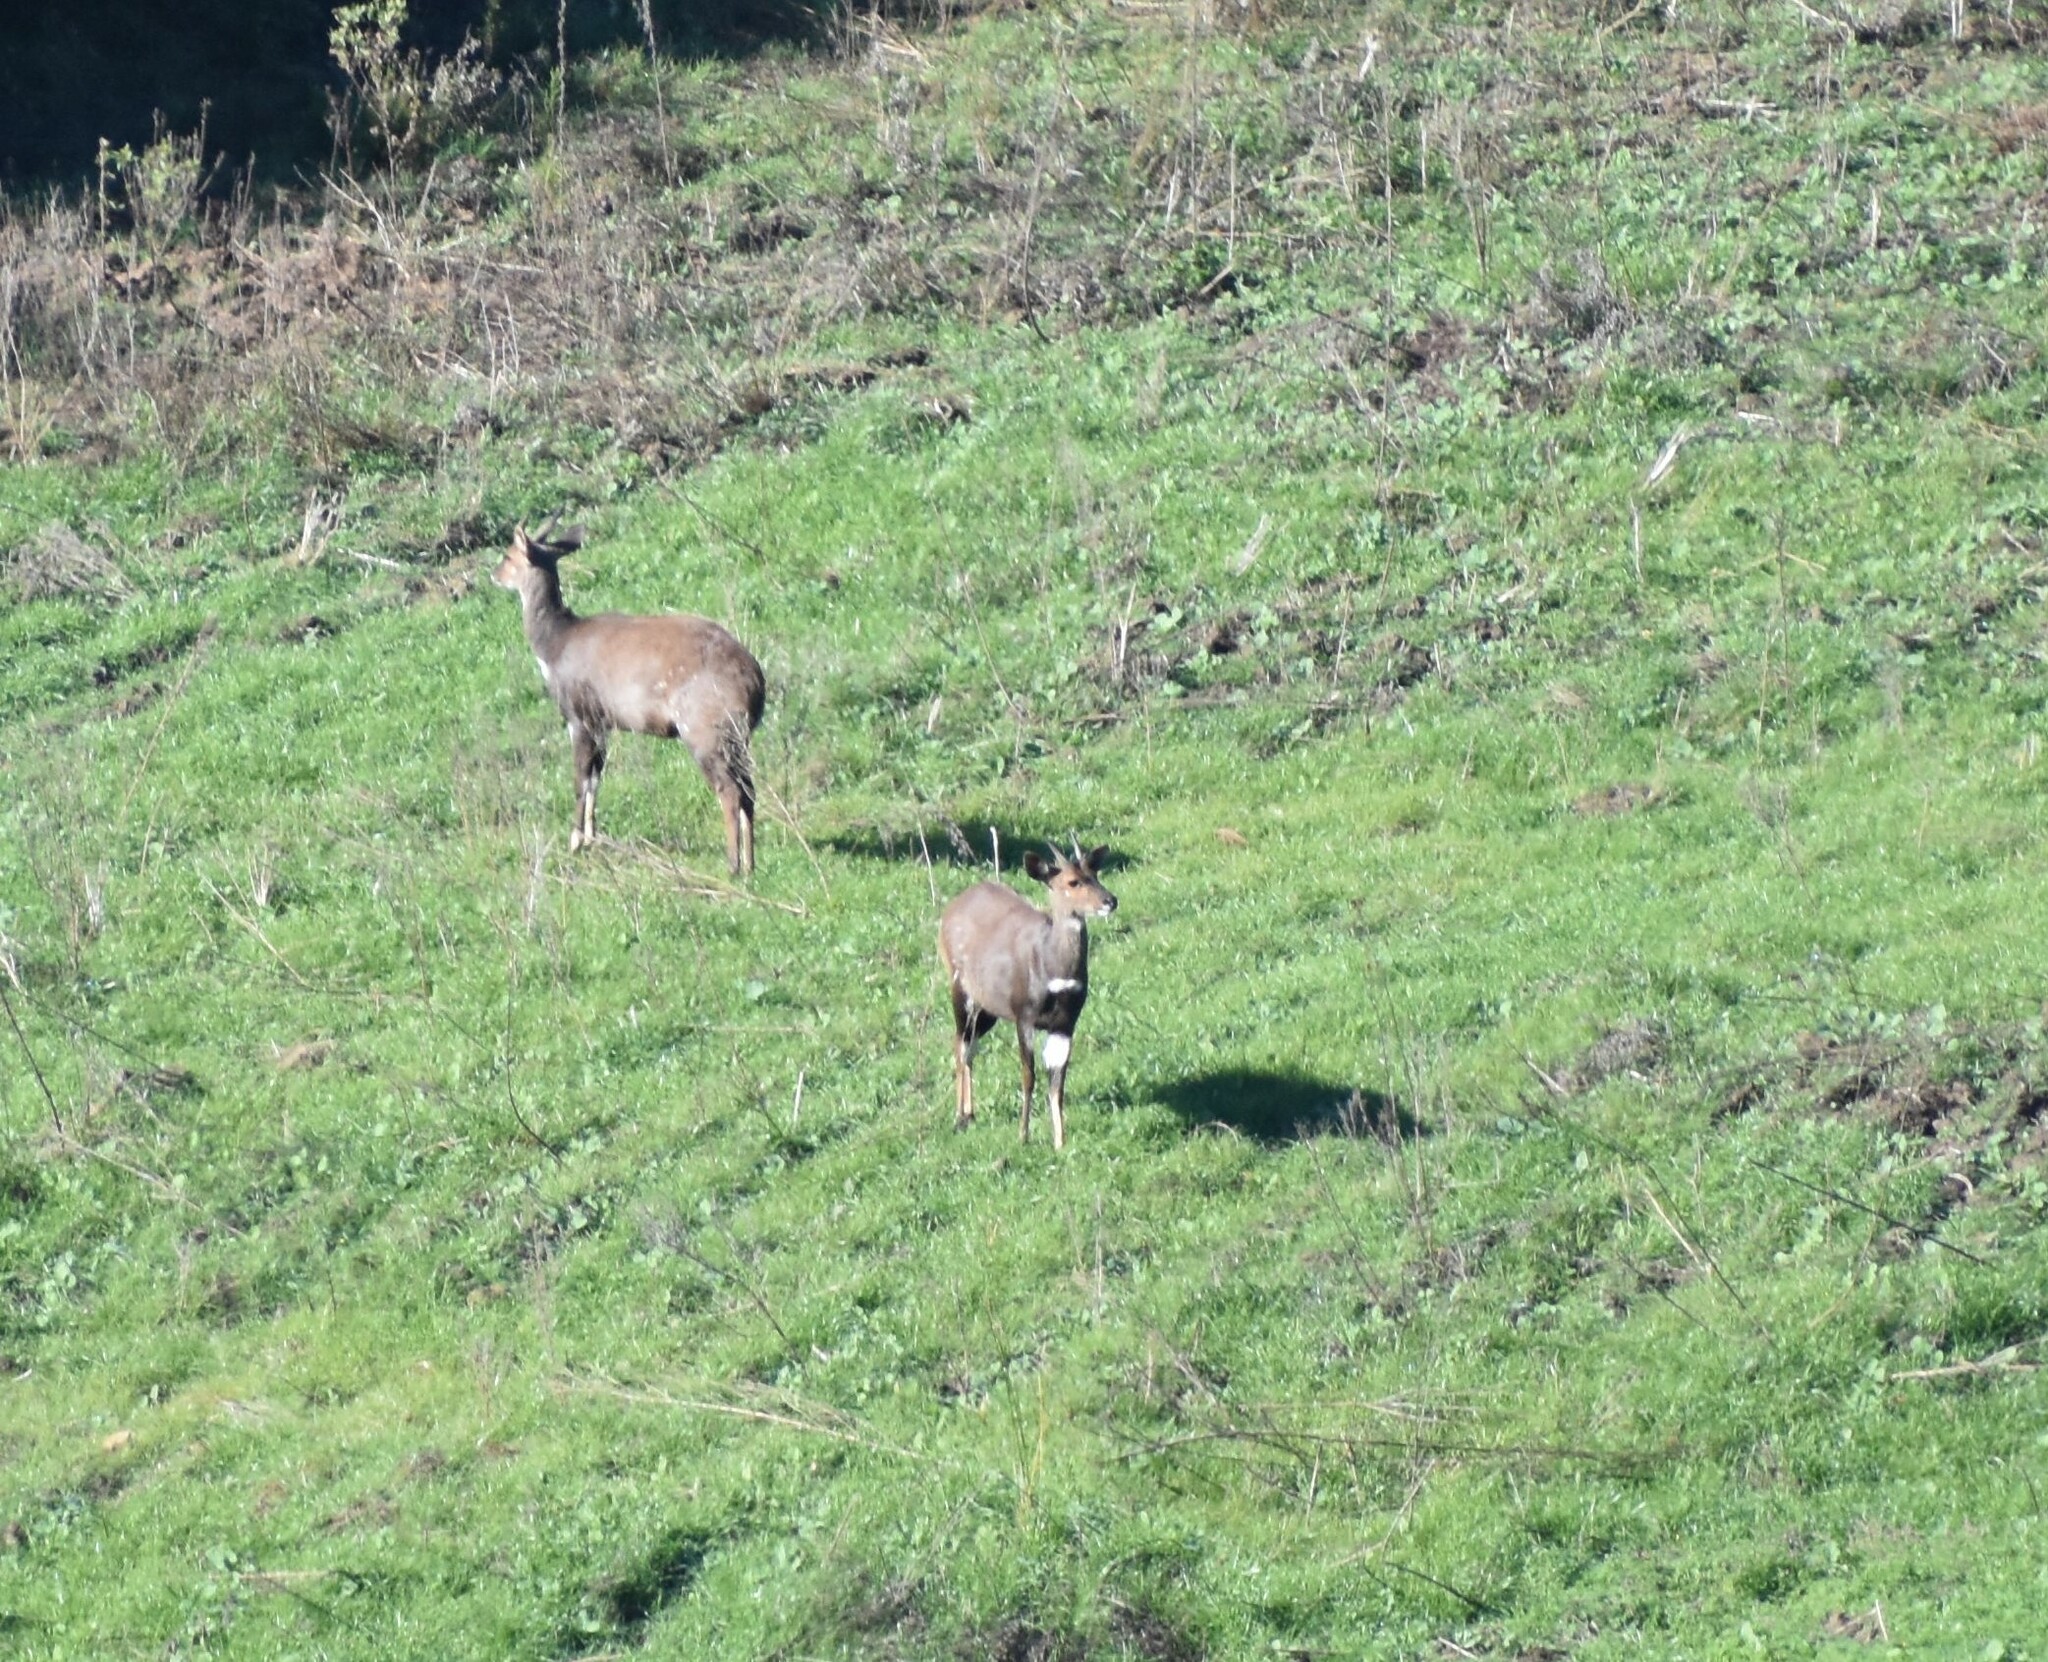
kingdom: Animalia
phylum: Chordata
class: Mammalia
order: Artiodactyla
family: Bovidae
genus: Tragelaphus
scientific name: Tragelaphus scriptus
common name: Bushbuck
